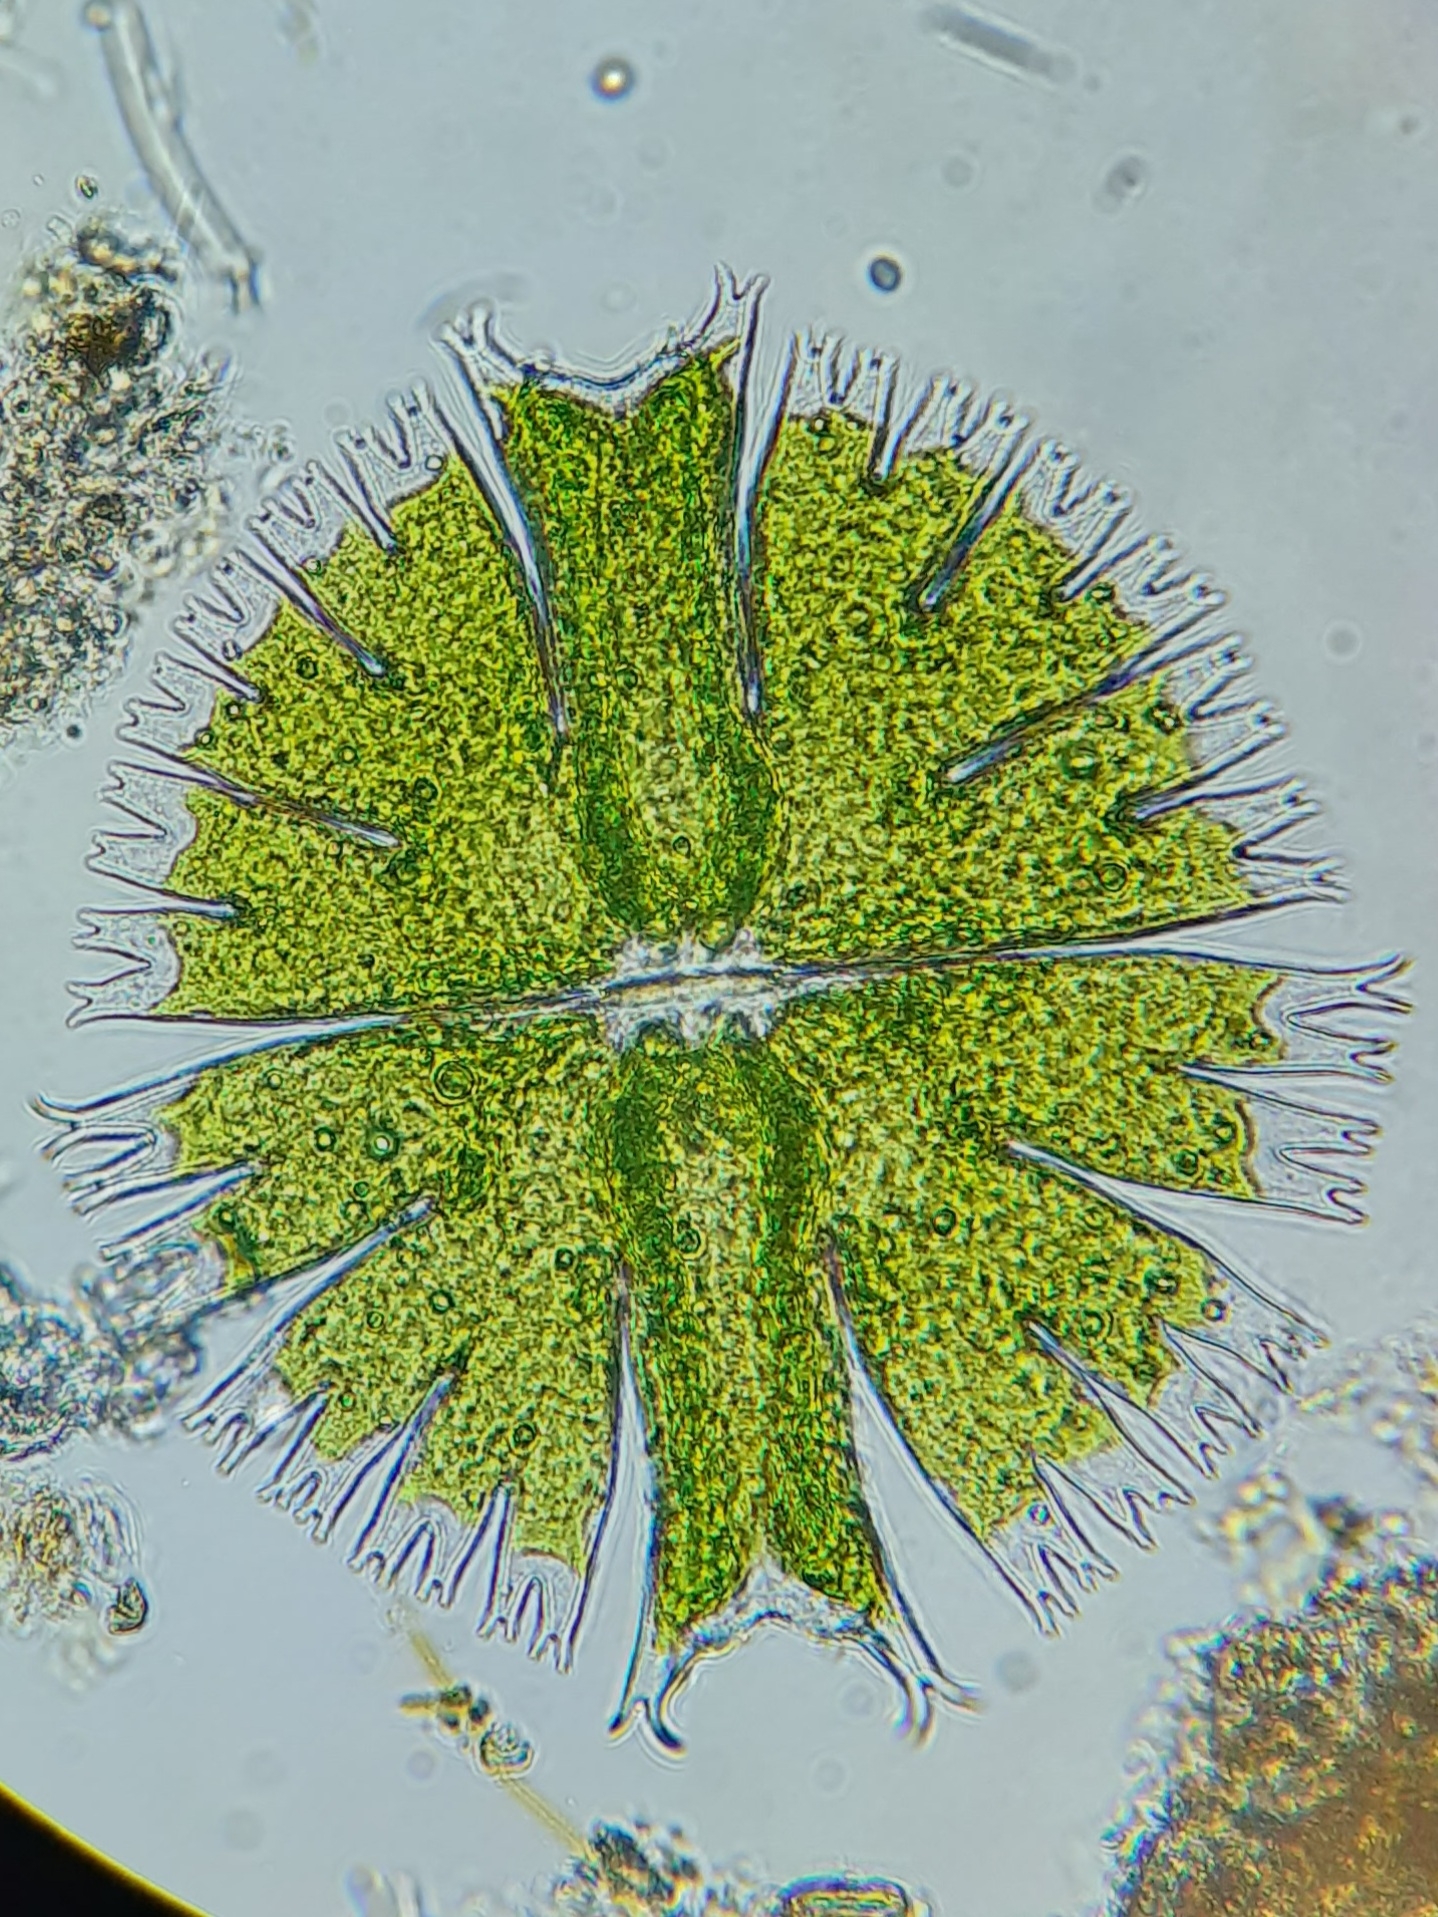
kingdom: Plantae
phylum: Charophyta
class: Conjugatophyceae
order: Desmidiales
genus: Micrasterias
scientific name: Micrasterias compereana
